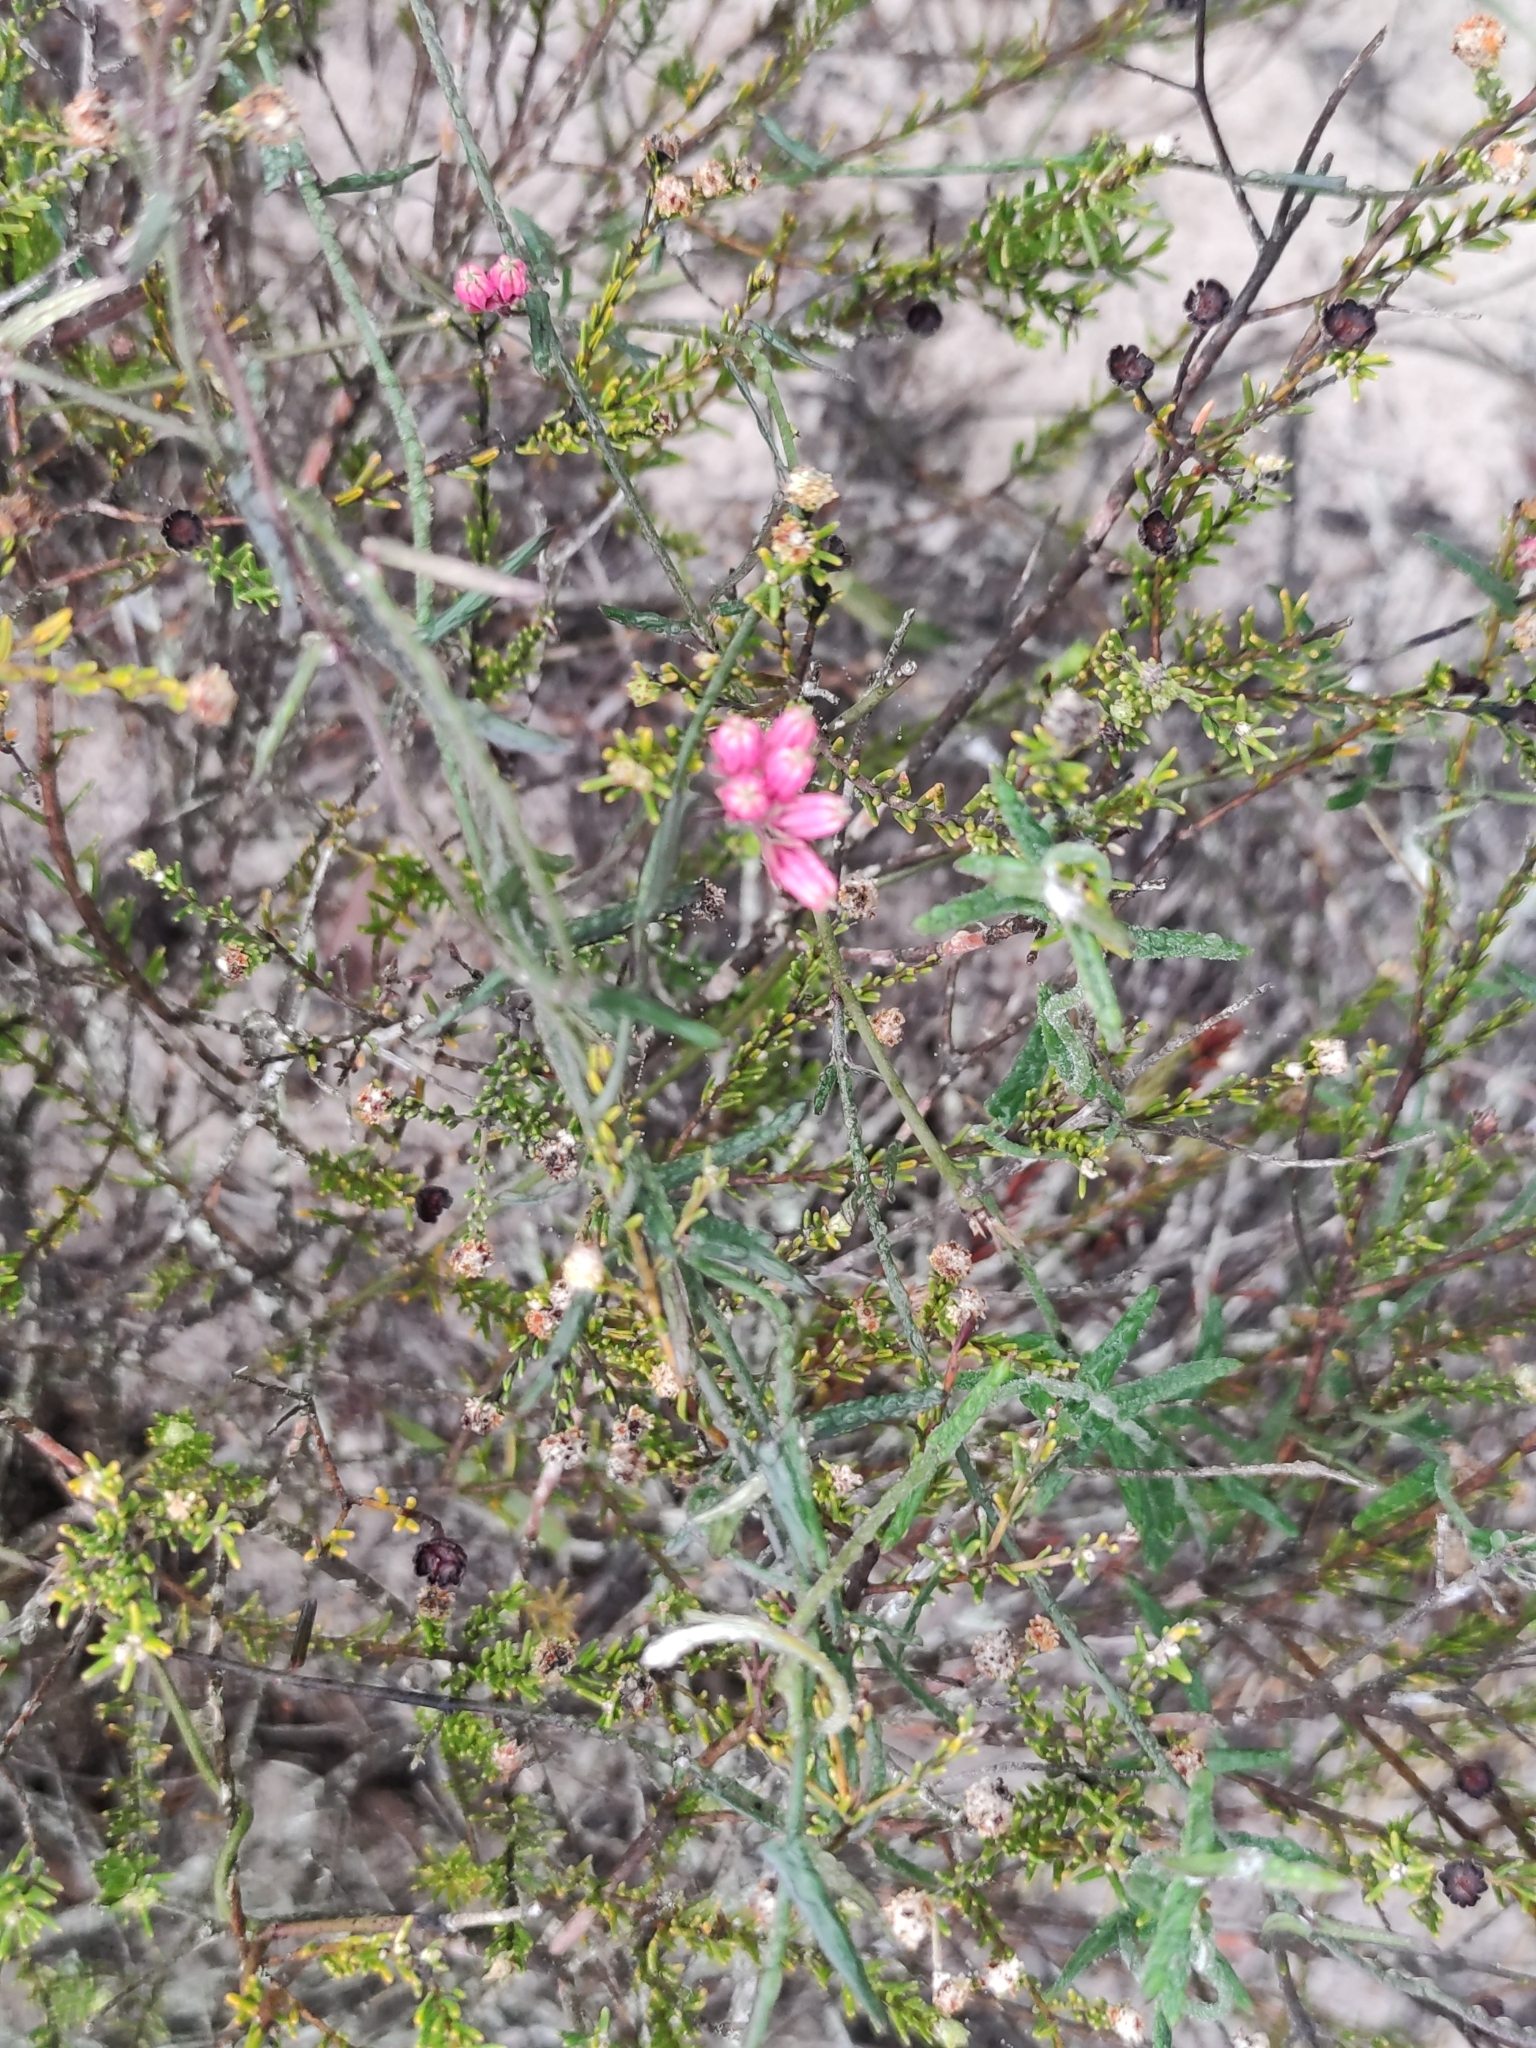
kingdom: Plantae
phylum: Tracheophyta
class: Magnoliopsida
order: Gentianales
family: Apocynaceae
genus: Microloma
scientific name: Microloma sagittatum
